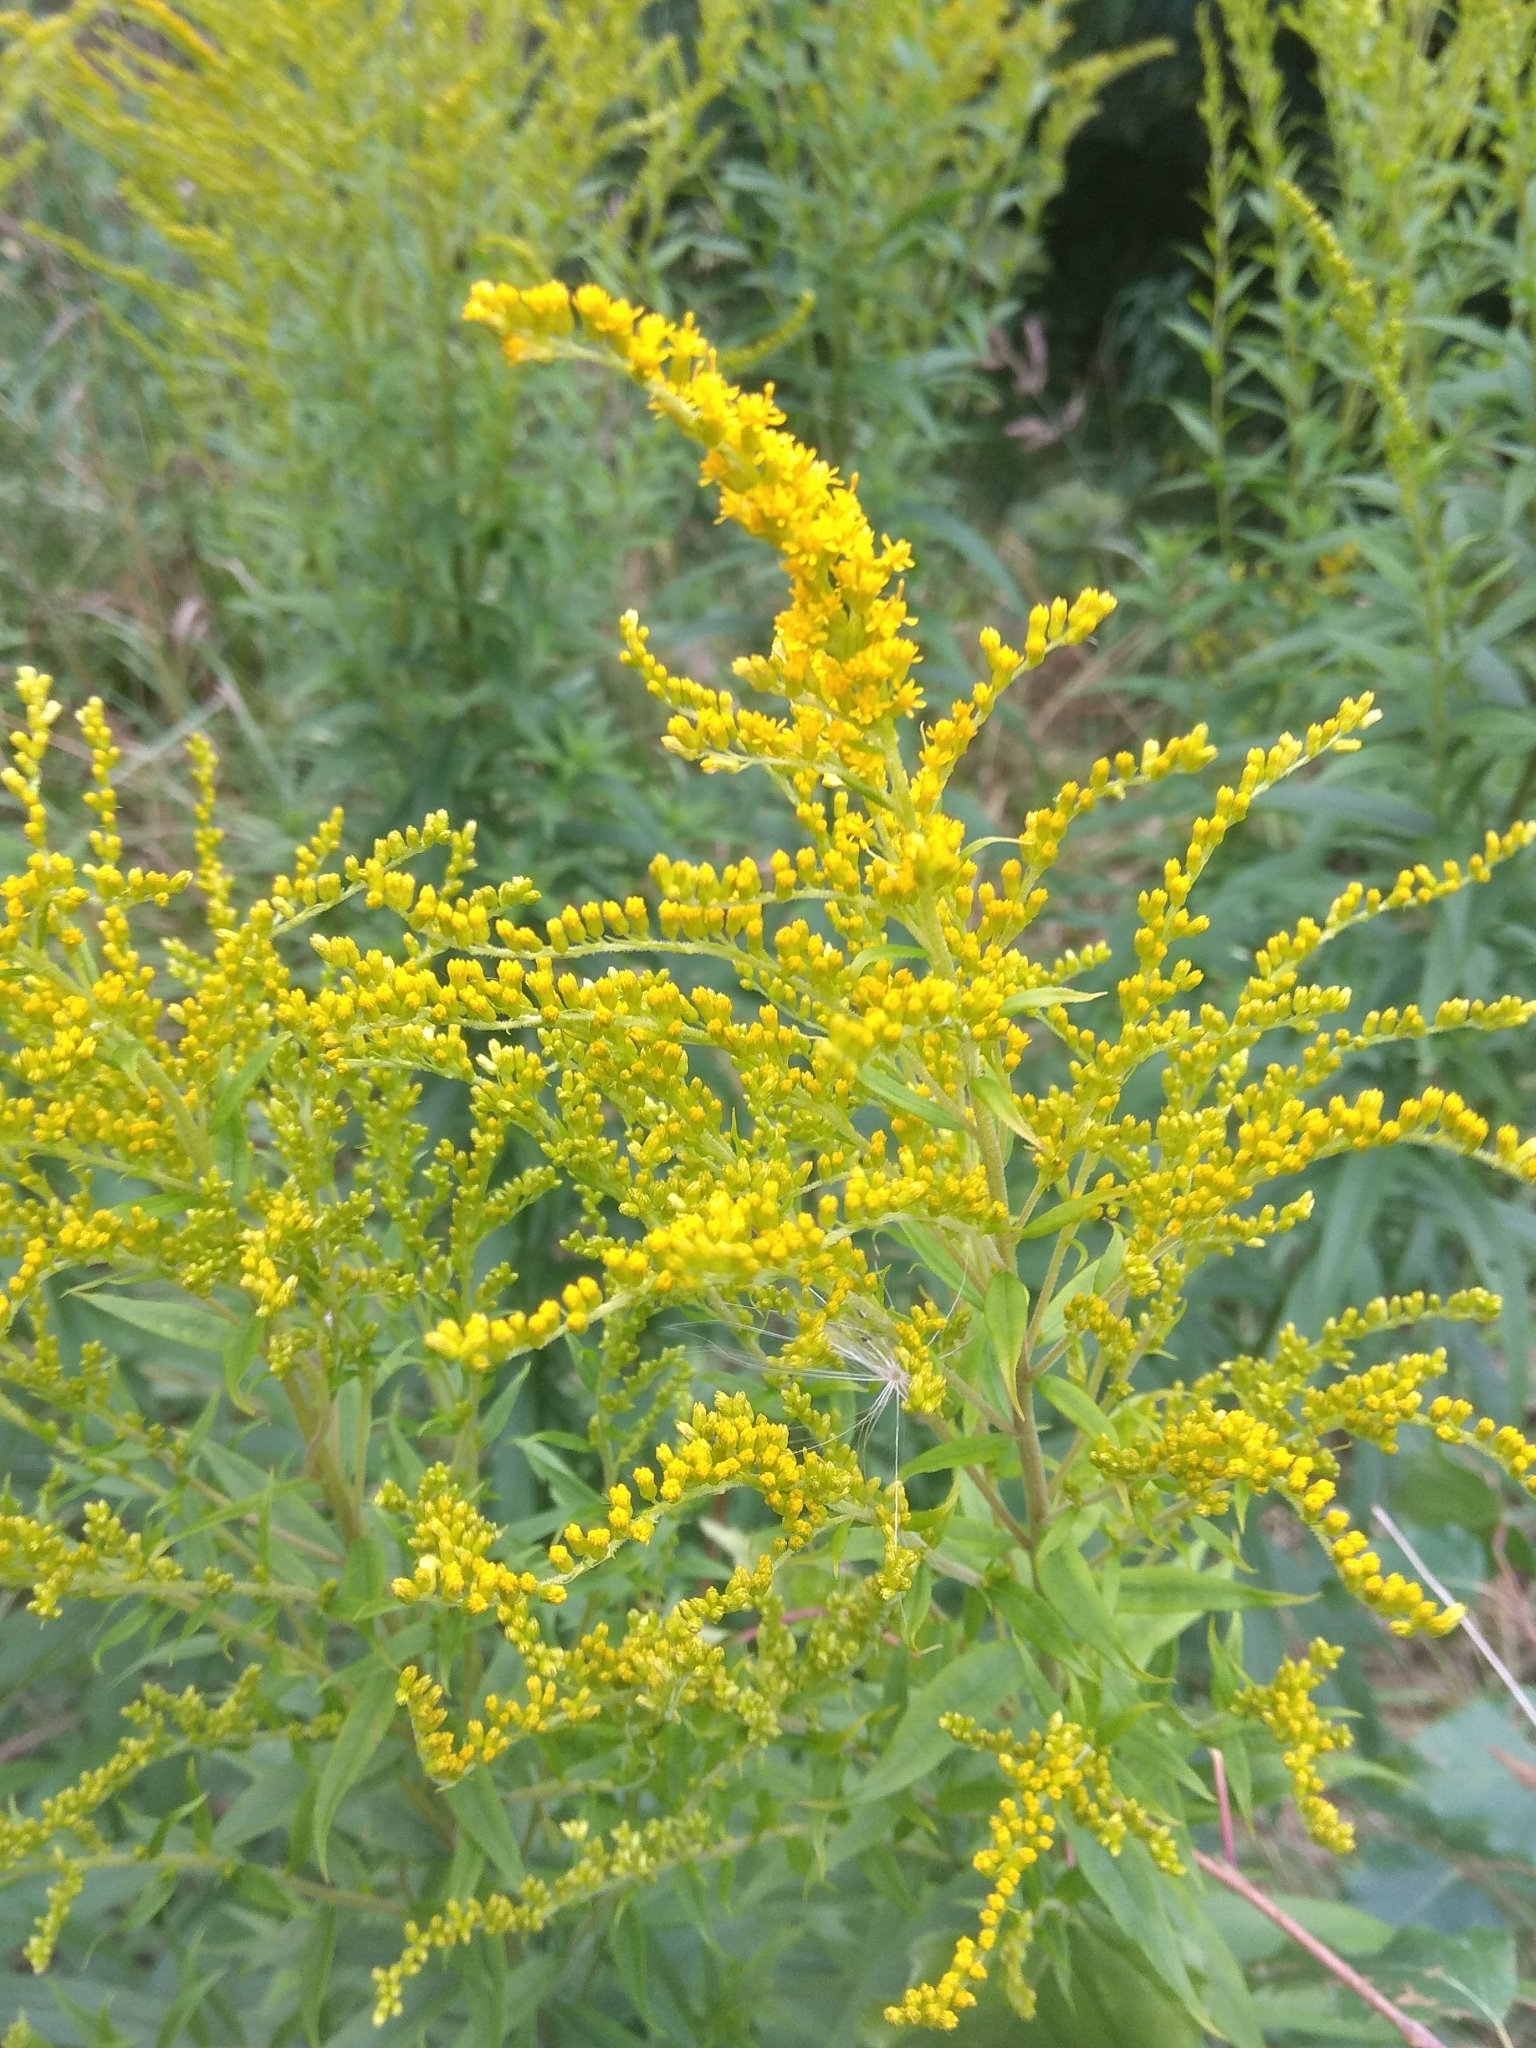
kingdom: Plantae
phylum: Tracheophyta
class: Magnoliopsida
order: Asterales
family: Asteraceae
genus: Solidago
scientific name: Solidago canadensis
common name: Canada goldenrod
